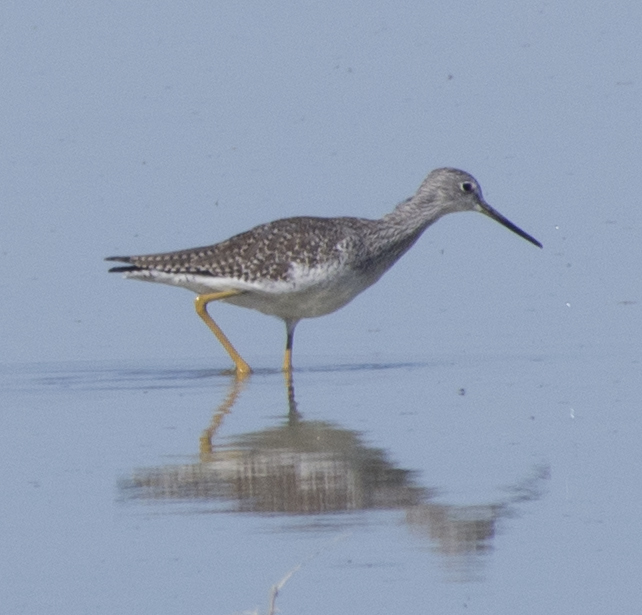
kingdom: Animalia
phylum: Chordata
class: Aves
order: Charadriiformes
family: Scolopacidae
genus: Tringa
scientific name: Tringa melanoleuca
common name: Greater yellowlegs
